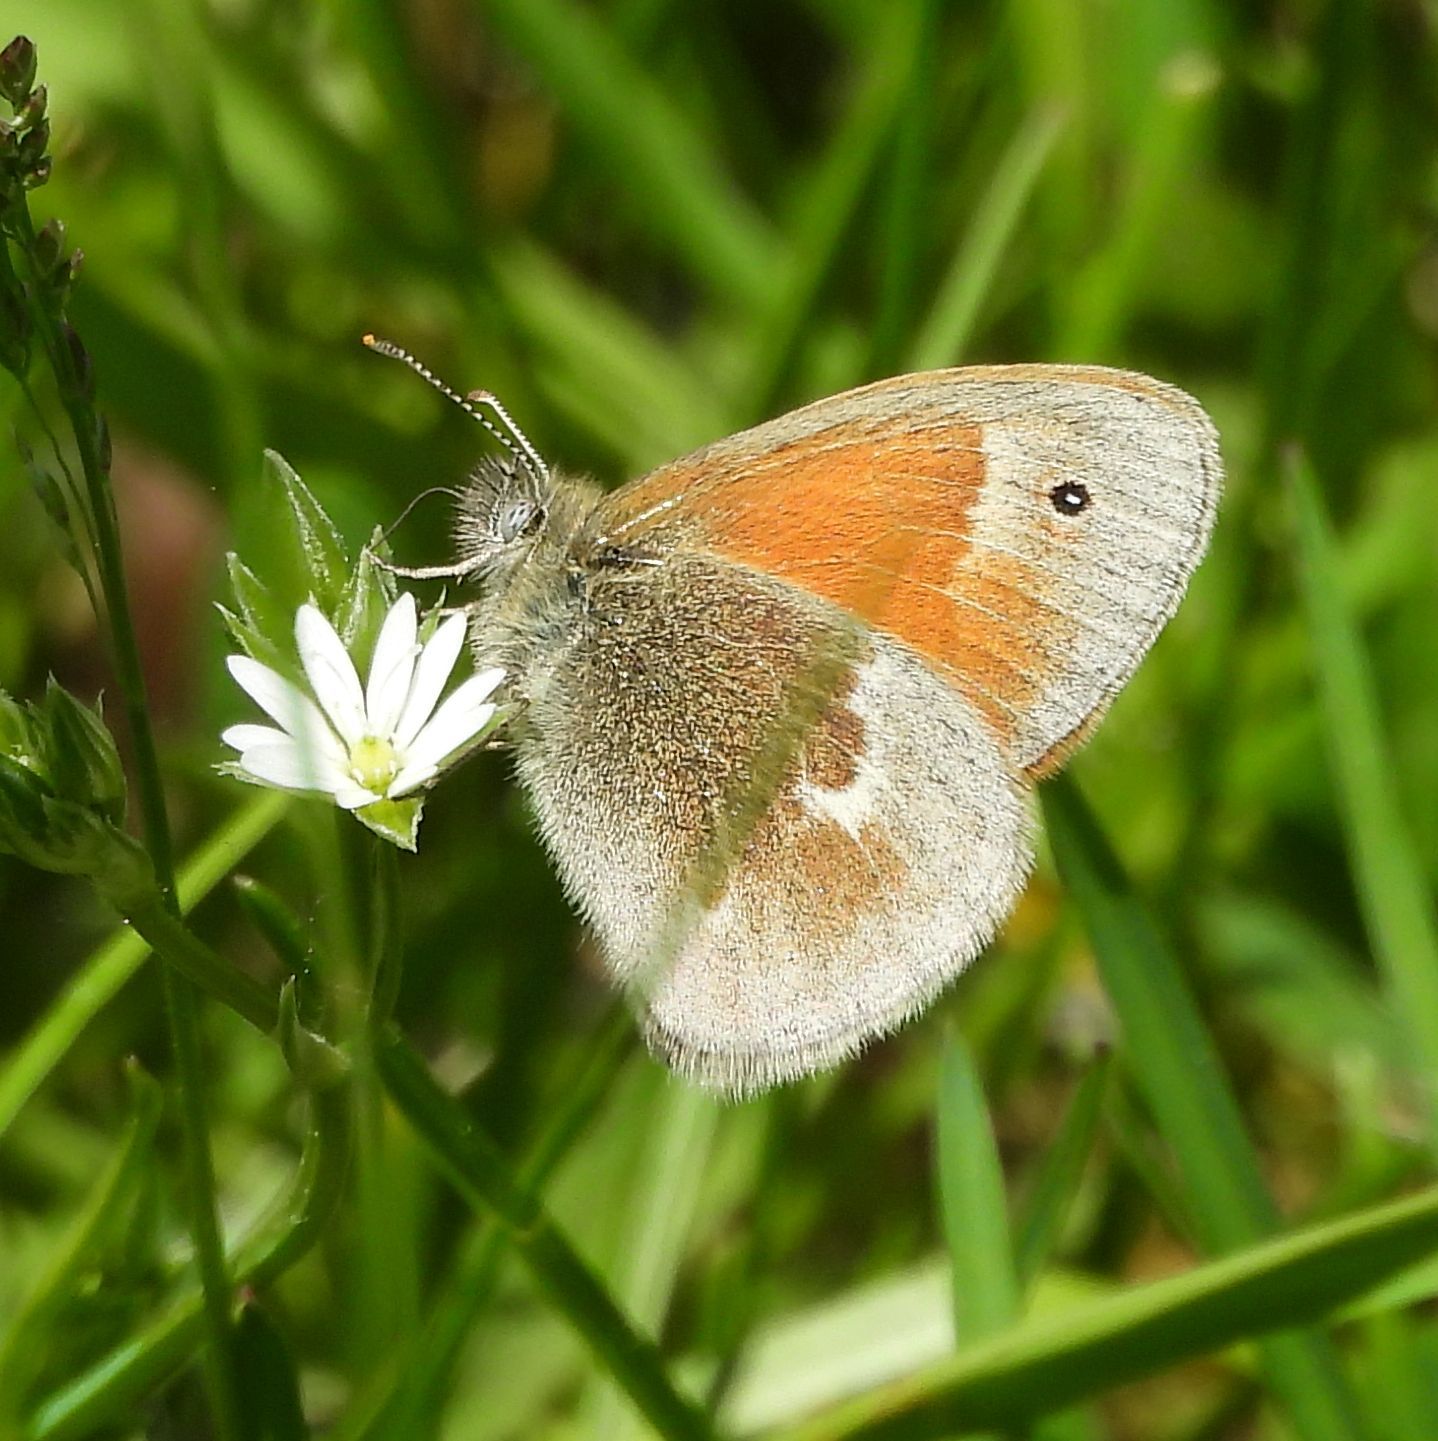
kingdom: Animalia
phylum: Arthropoda
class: Insecta
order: Lepidoptera
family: Nymphalidae
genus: Coenonympha
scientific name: Coenonympha california
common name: Common ringlet
